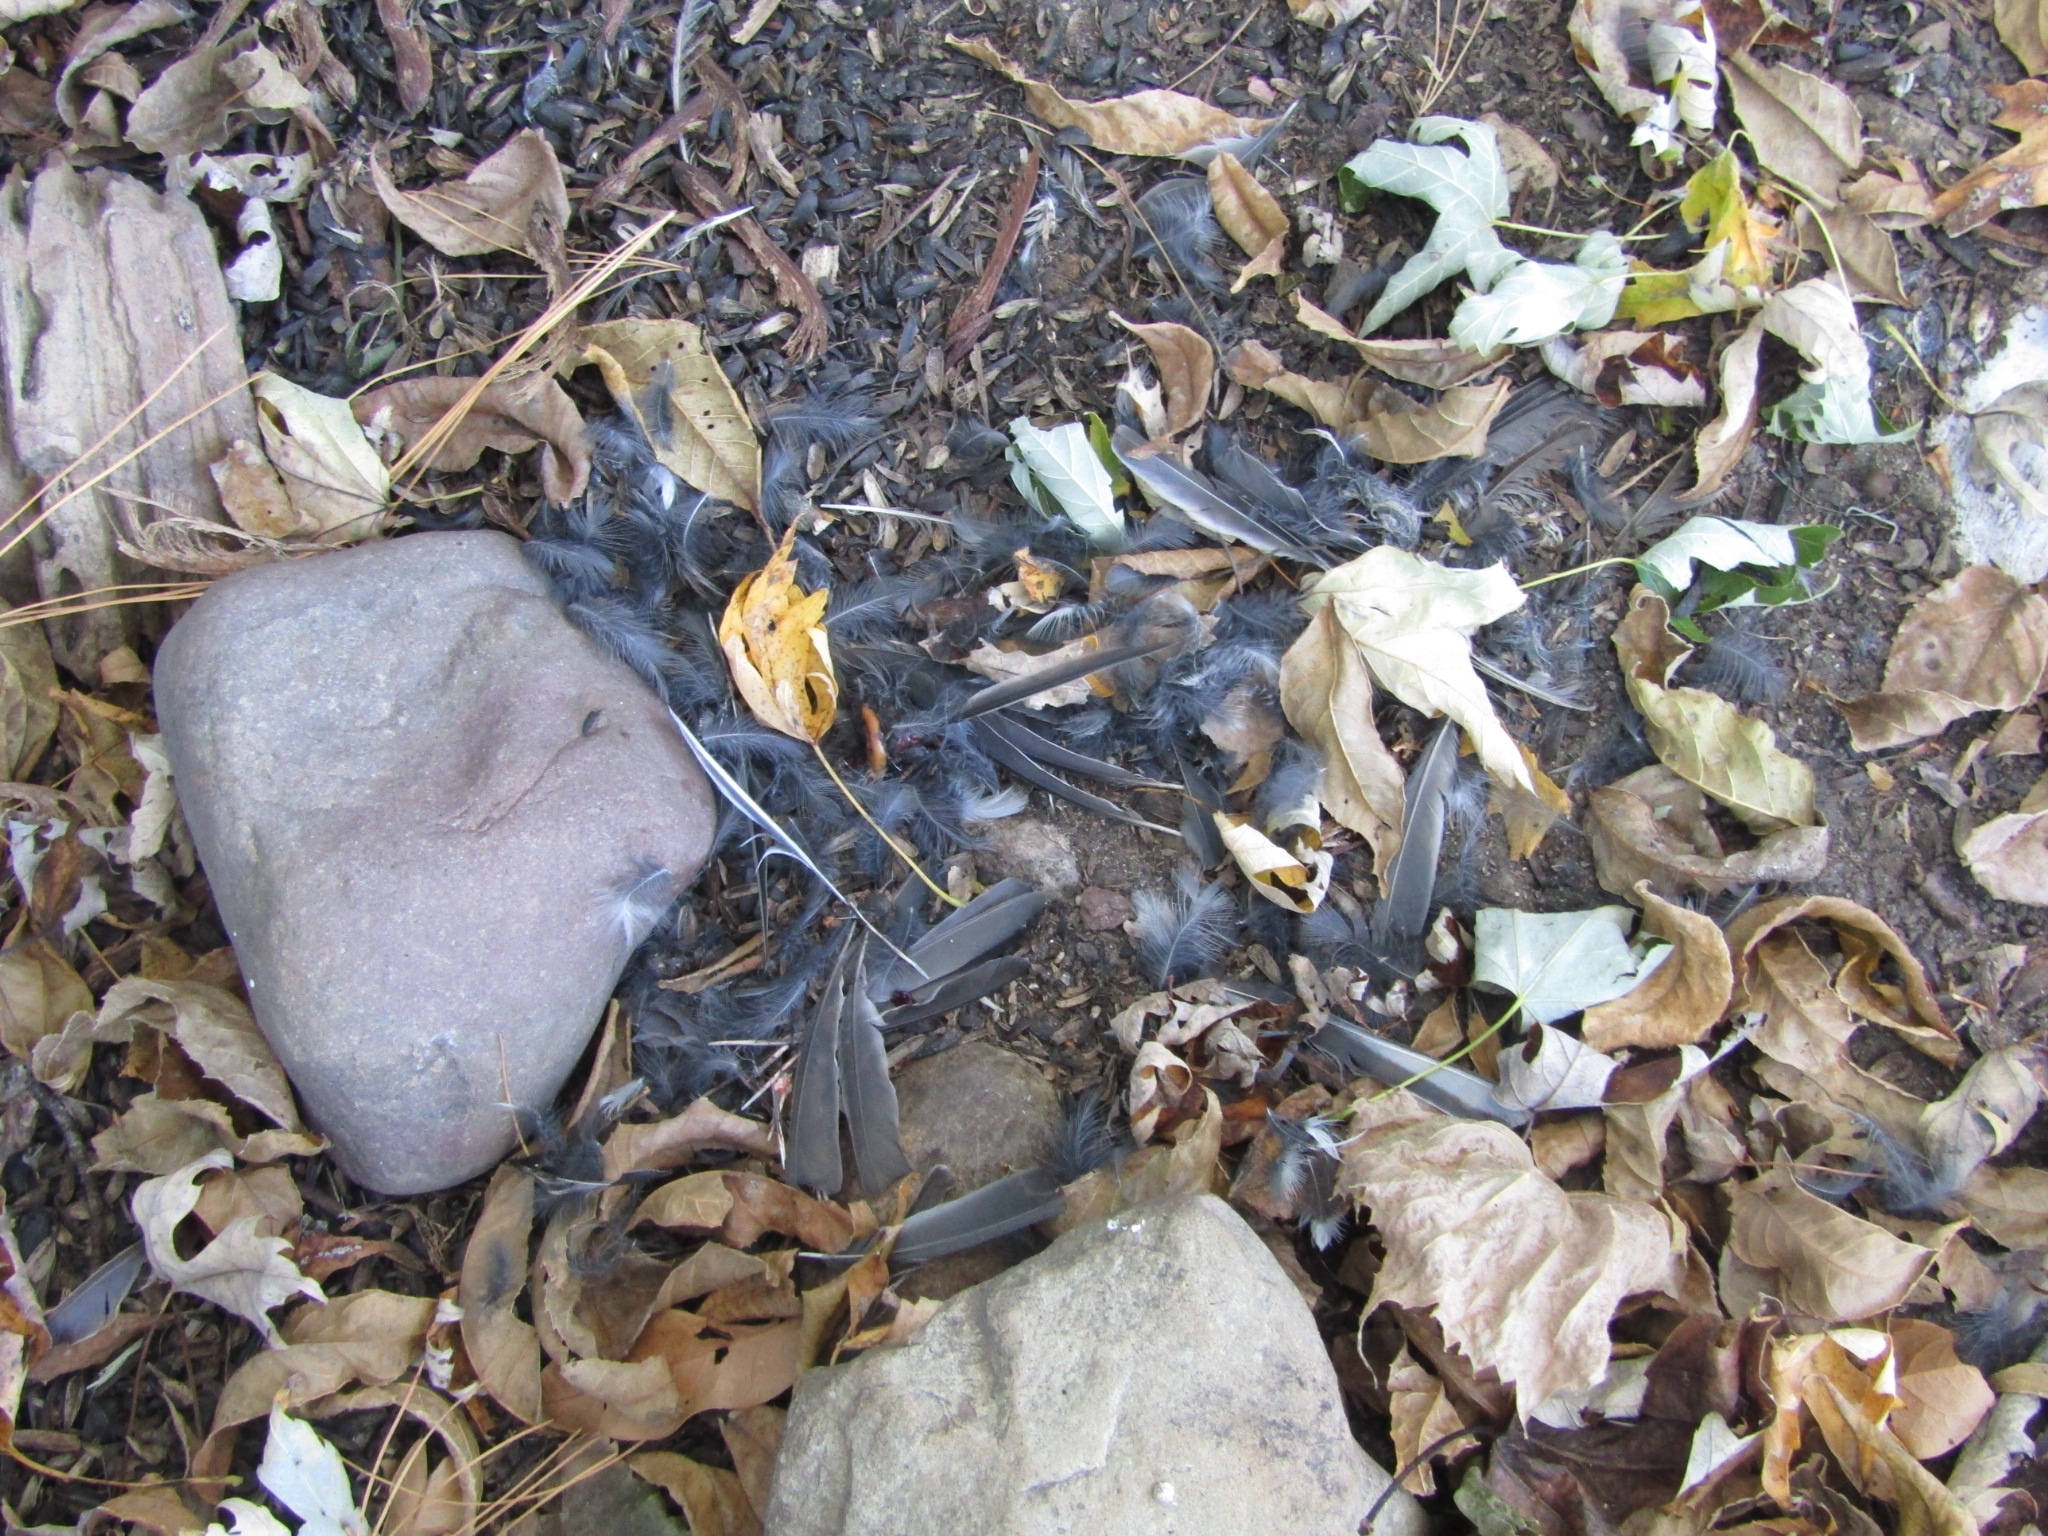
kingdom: Animalia
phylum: Chordata
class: Aves
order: Passeriformes
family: Passerellidae
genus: Junco
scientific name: Junco hyemalis
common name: Dark-eyed junco
